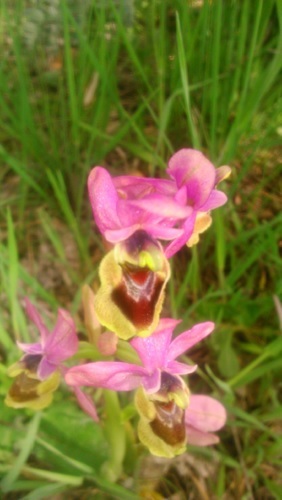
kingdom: Plantae
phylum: Tracheophyta
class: Liliopsida
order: Asparagales
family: Orchidaceae
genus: Ophrys
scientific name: Ophrys tenthredinifera
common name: Sawfly orchid
